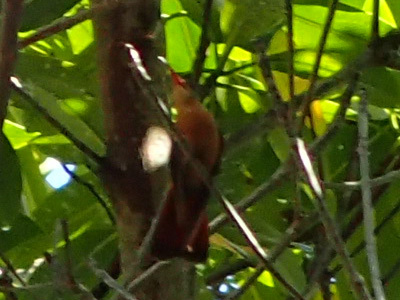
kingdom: Animalia
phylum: Chordata
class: Aves
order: Apodiformes
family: Trochilidae
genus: Amazilia
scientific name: Amazilia rutila
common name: Cinnamon hummingbird
